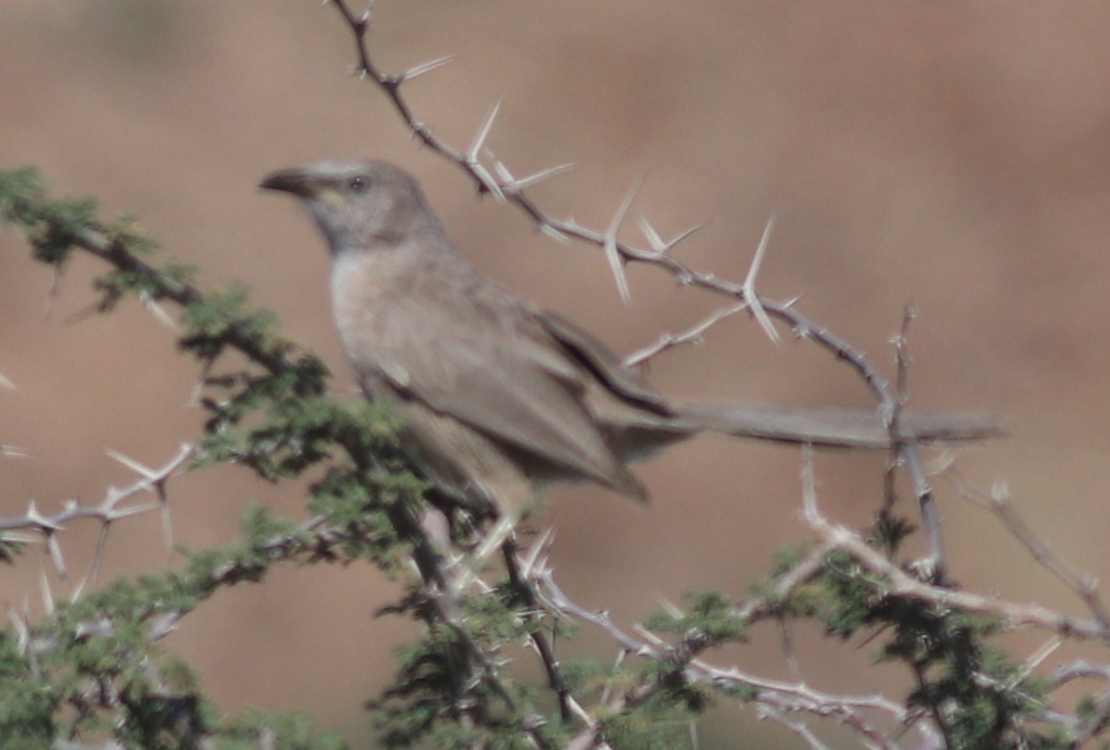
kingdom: Animalia
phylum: Chordata
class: Aves
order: Passeriformes
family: Leiothrichidae
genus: Turdoides
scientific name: Turdoides squamiceps
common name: Arabian babbler
